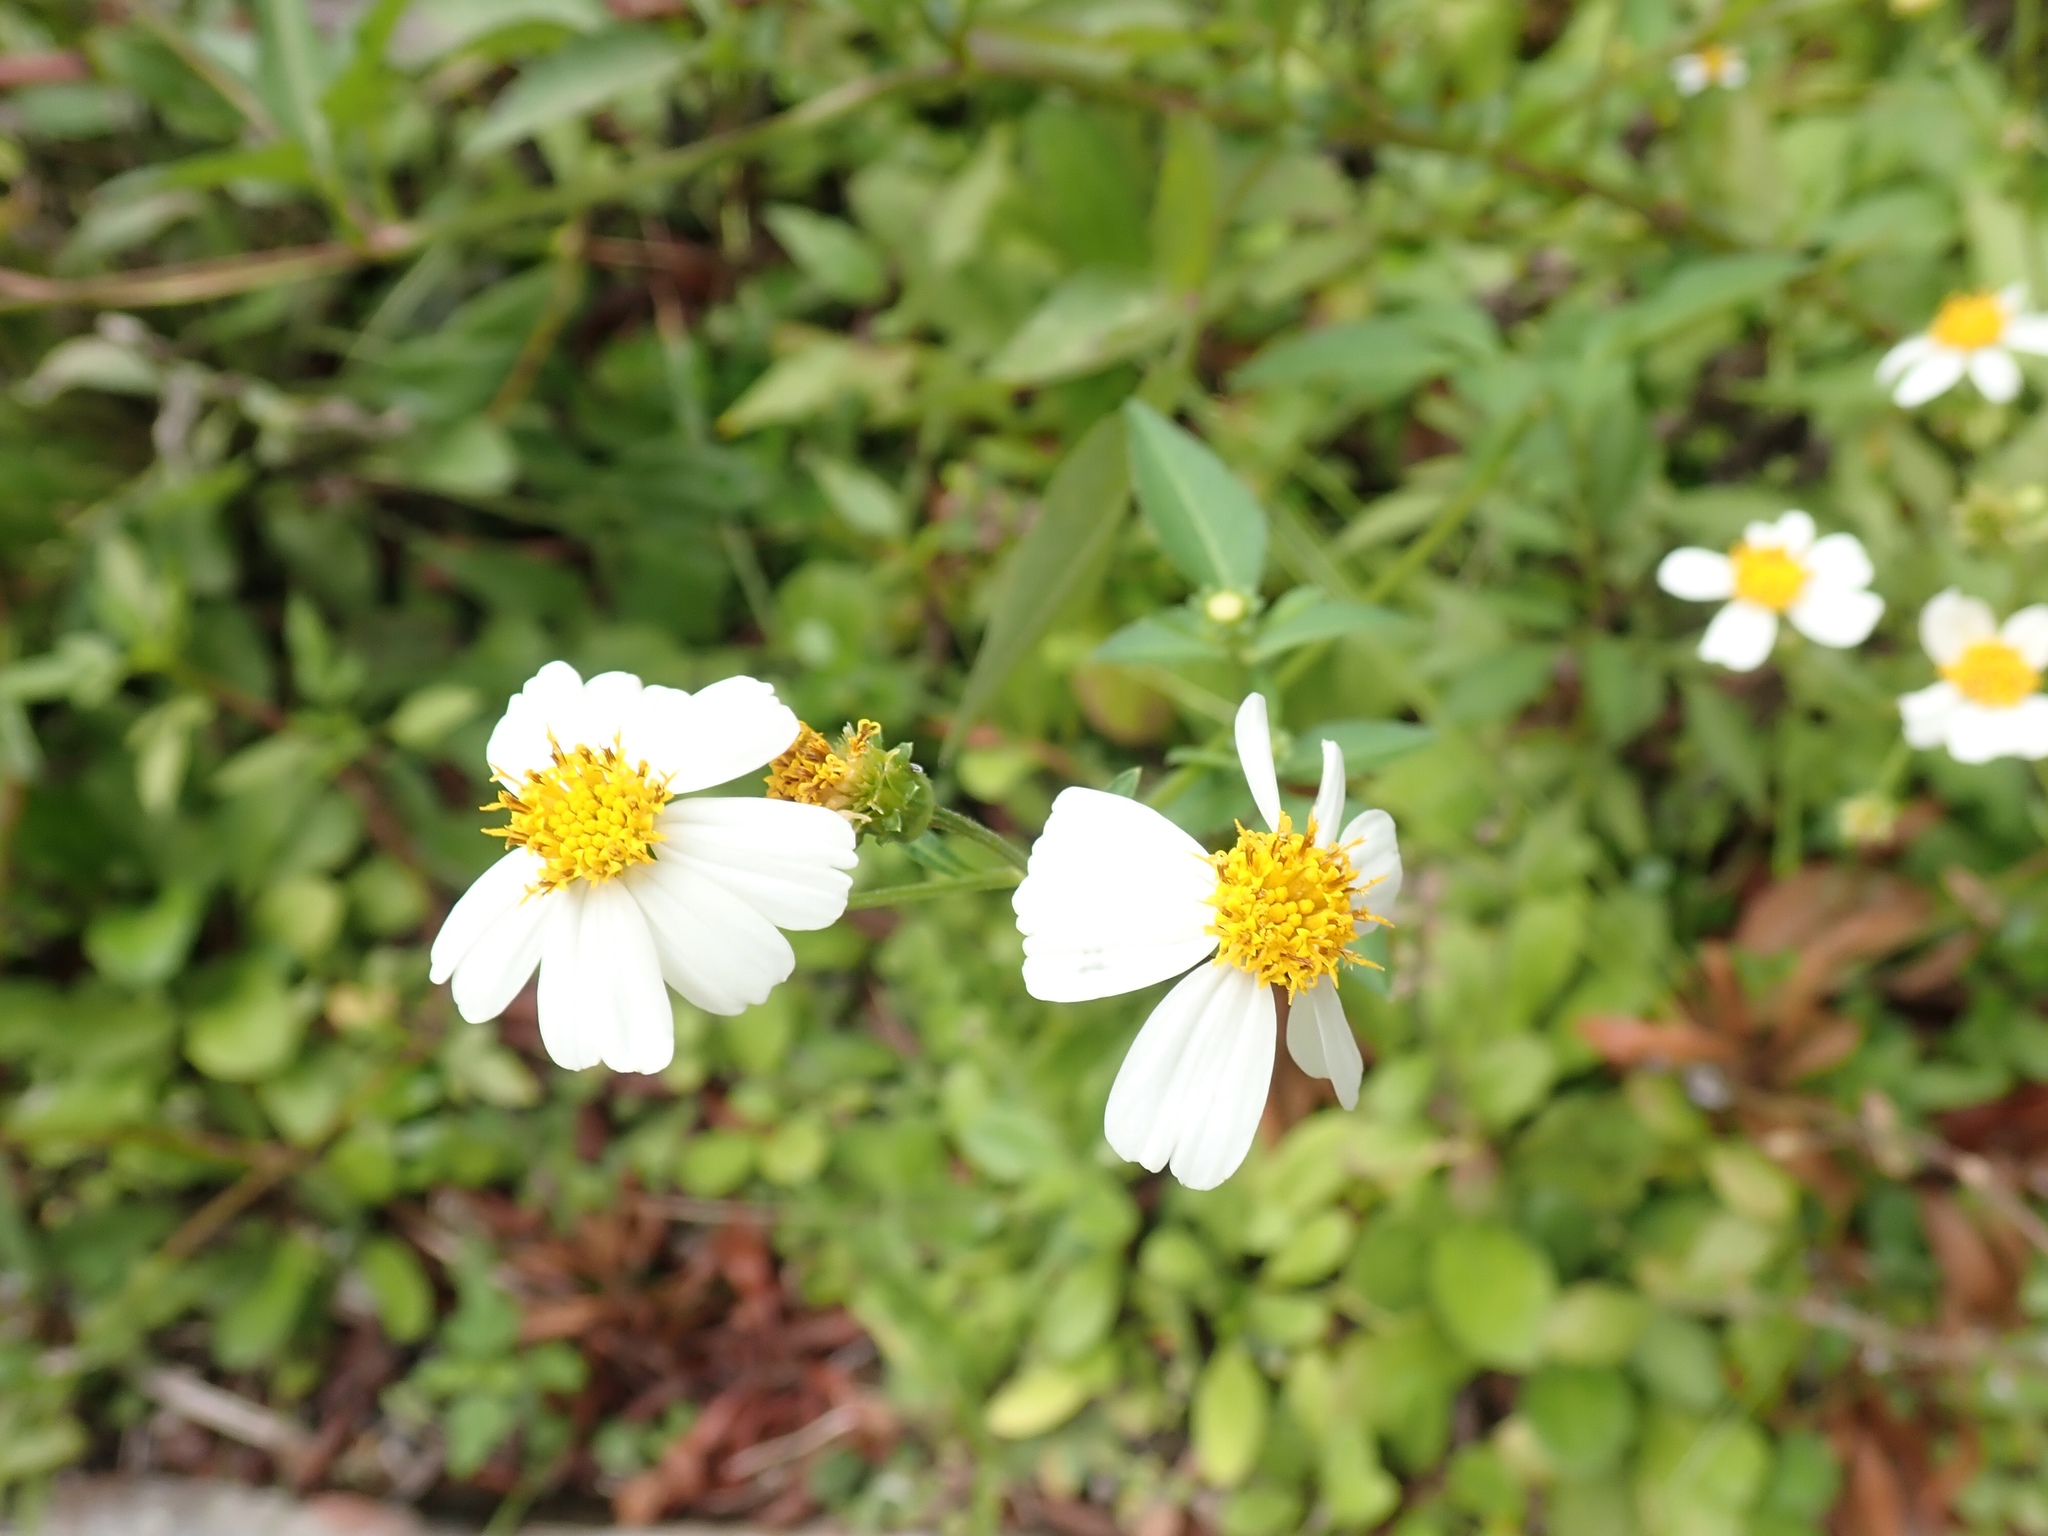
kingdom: Plantae
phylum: Tracheophyta
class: Magnoliopsida
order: Asterales
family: Asteraceae
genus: Bidens
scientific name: Bidens alba
